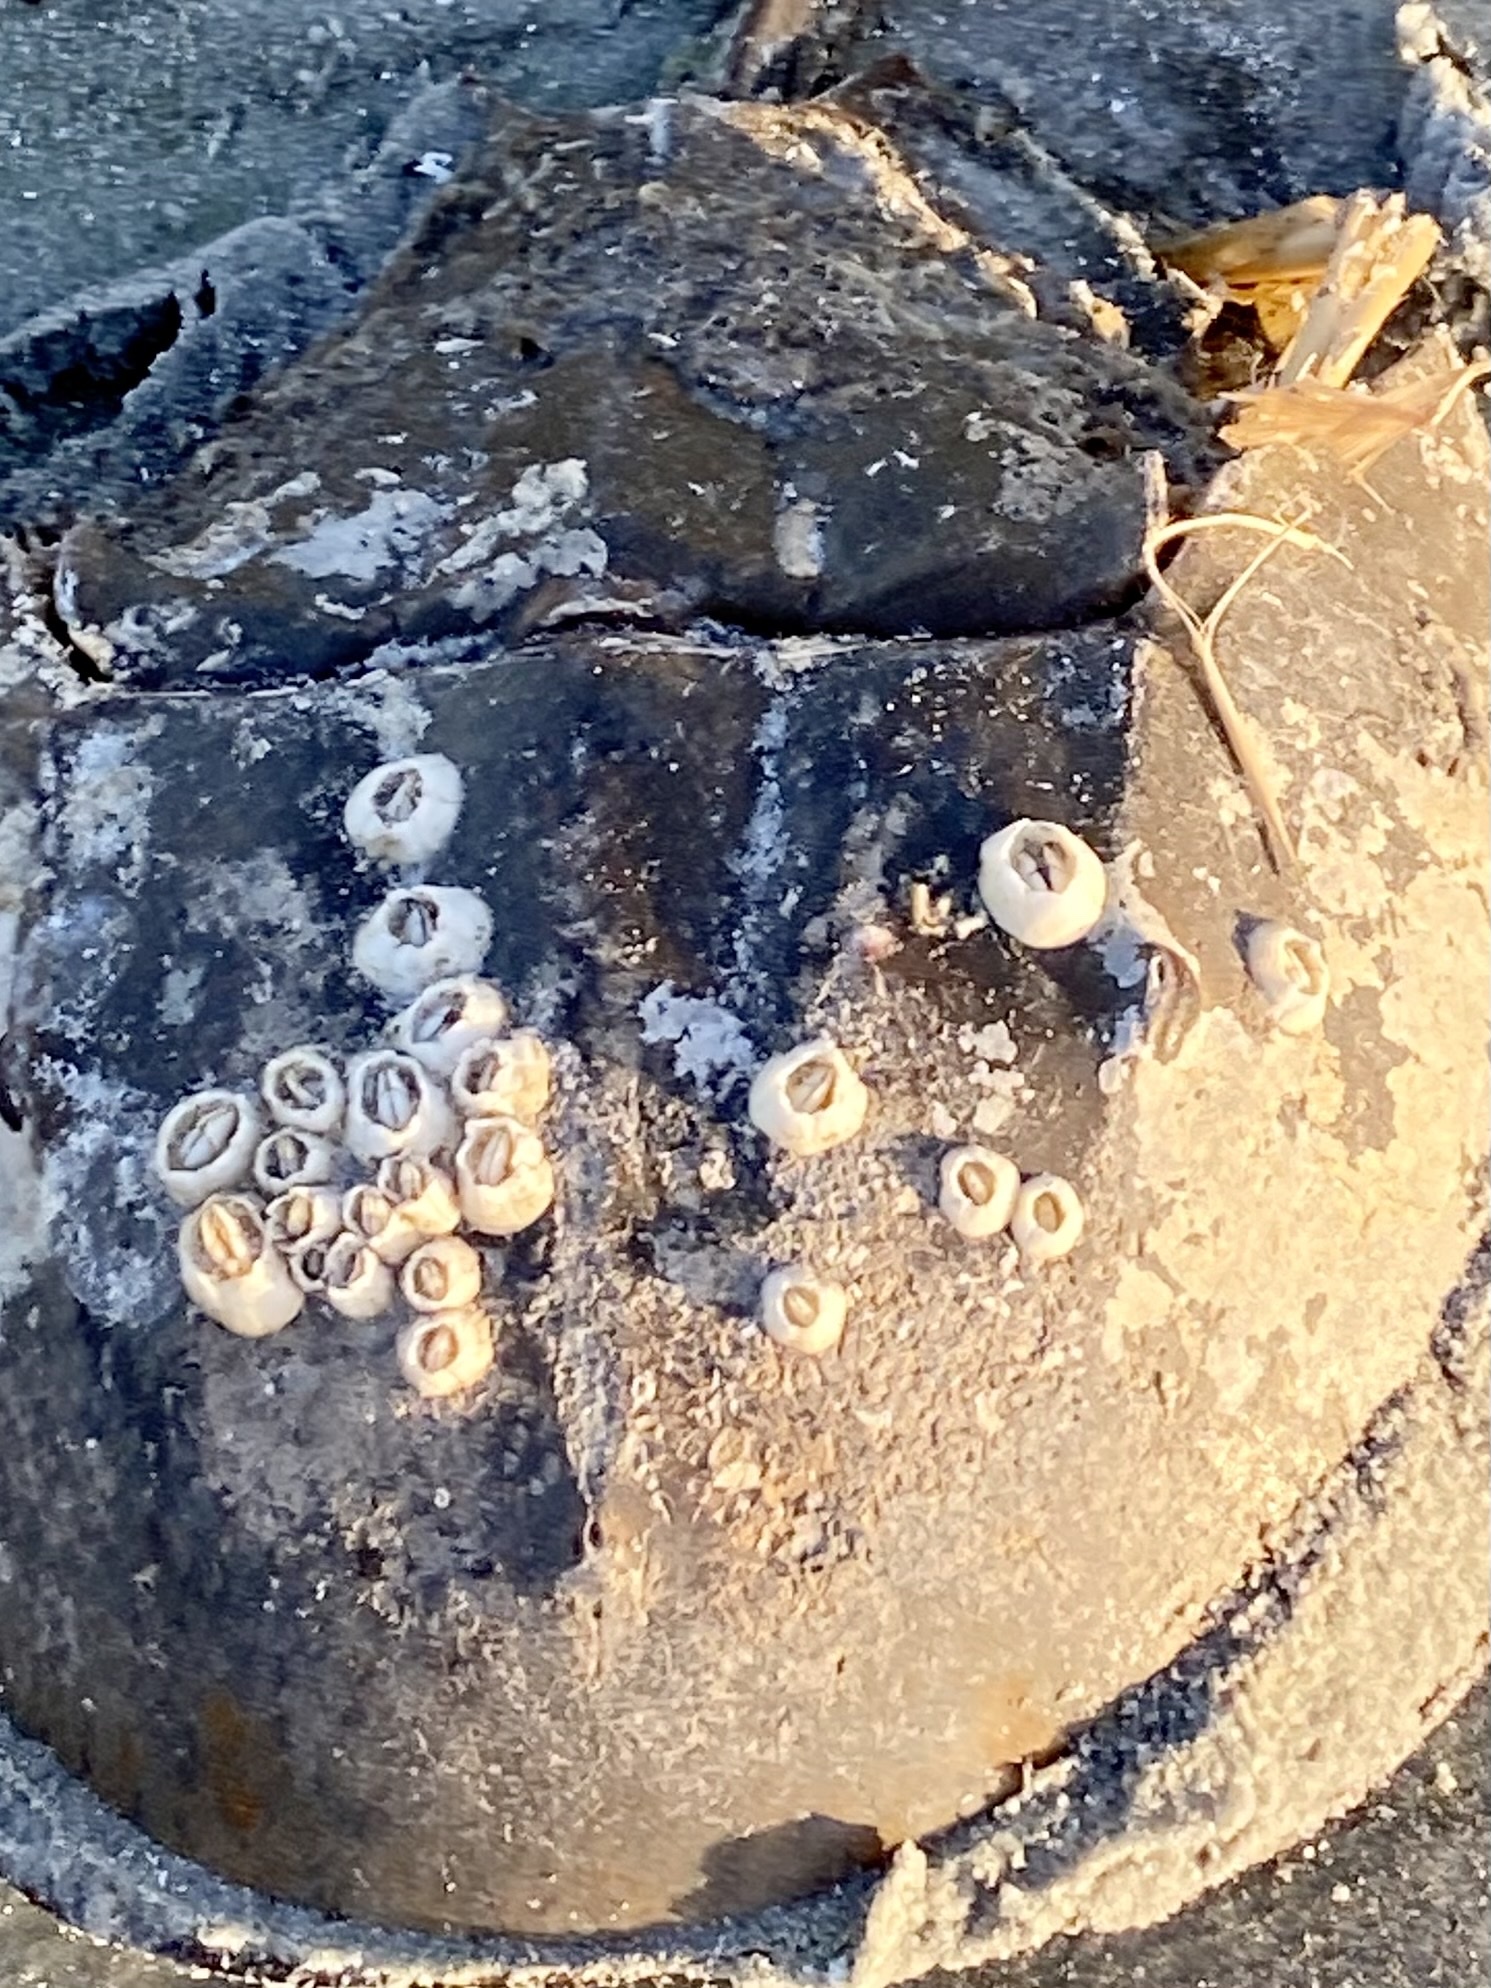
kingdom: Animalia
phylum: Arthropoda
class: Maxillopoda
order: Sessilia
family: Chelonibiidae
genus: Chelonibia
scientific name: Chelonibia testudinaria
